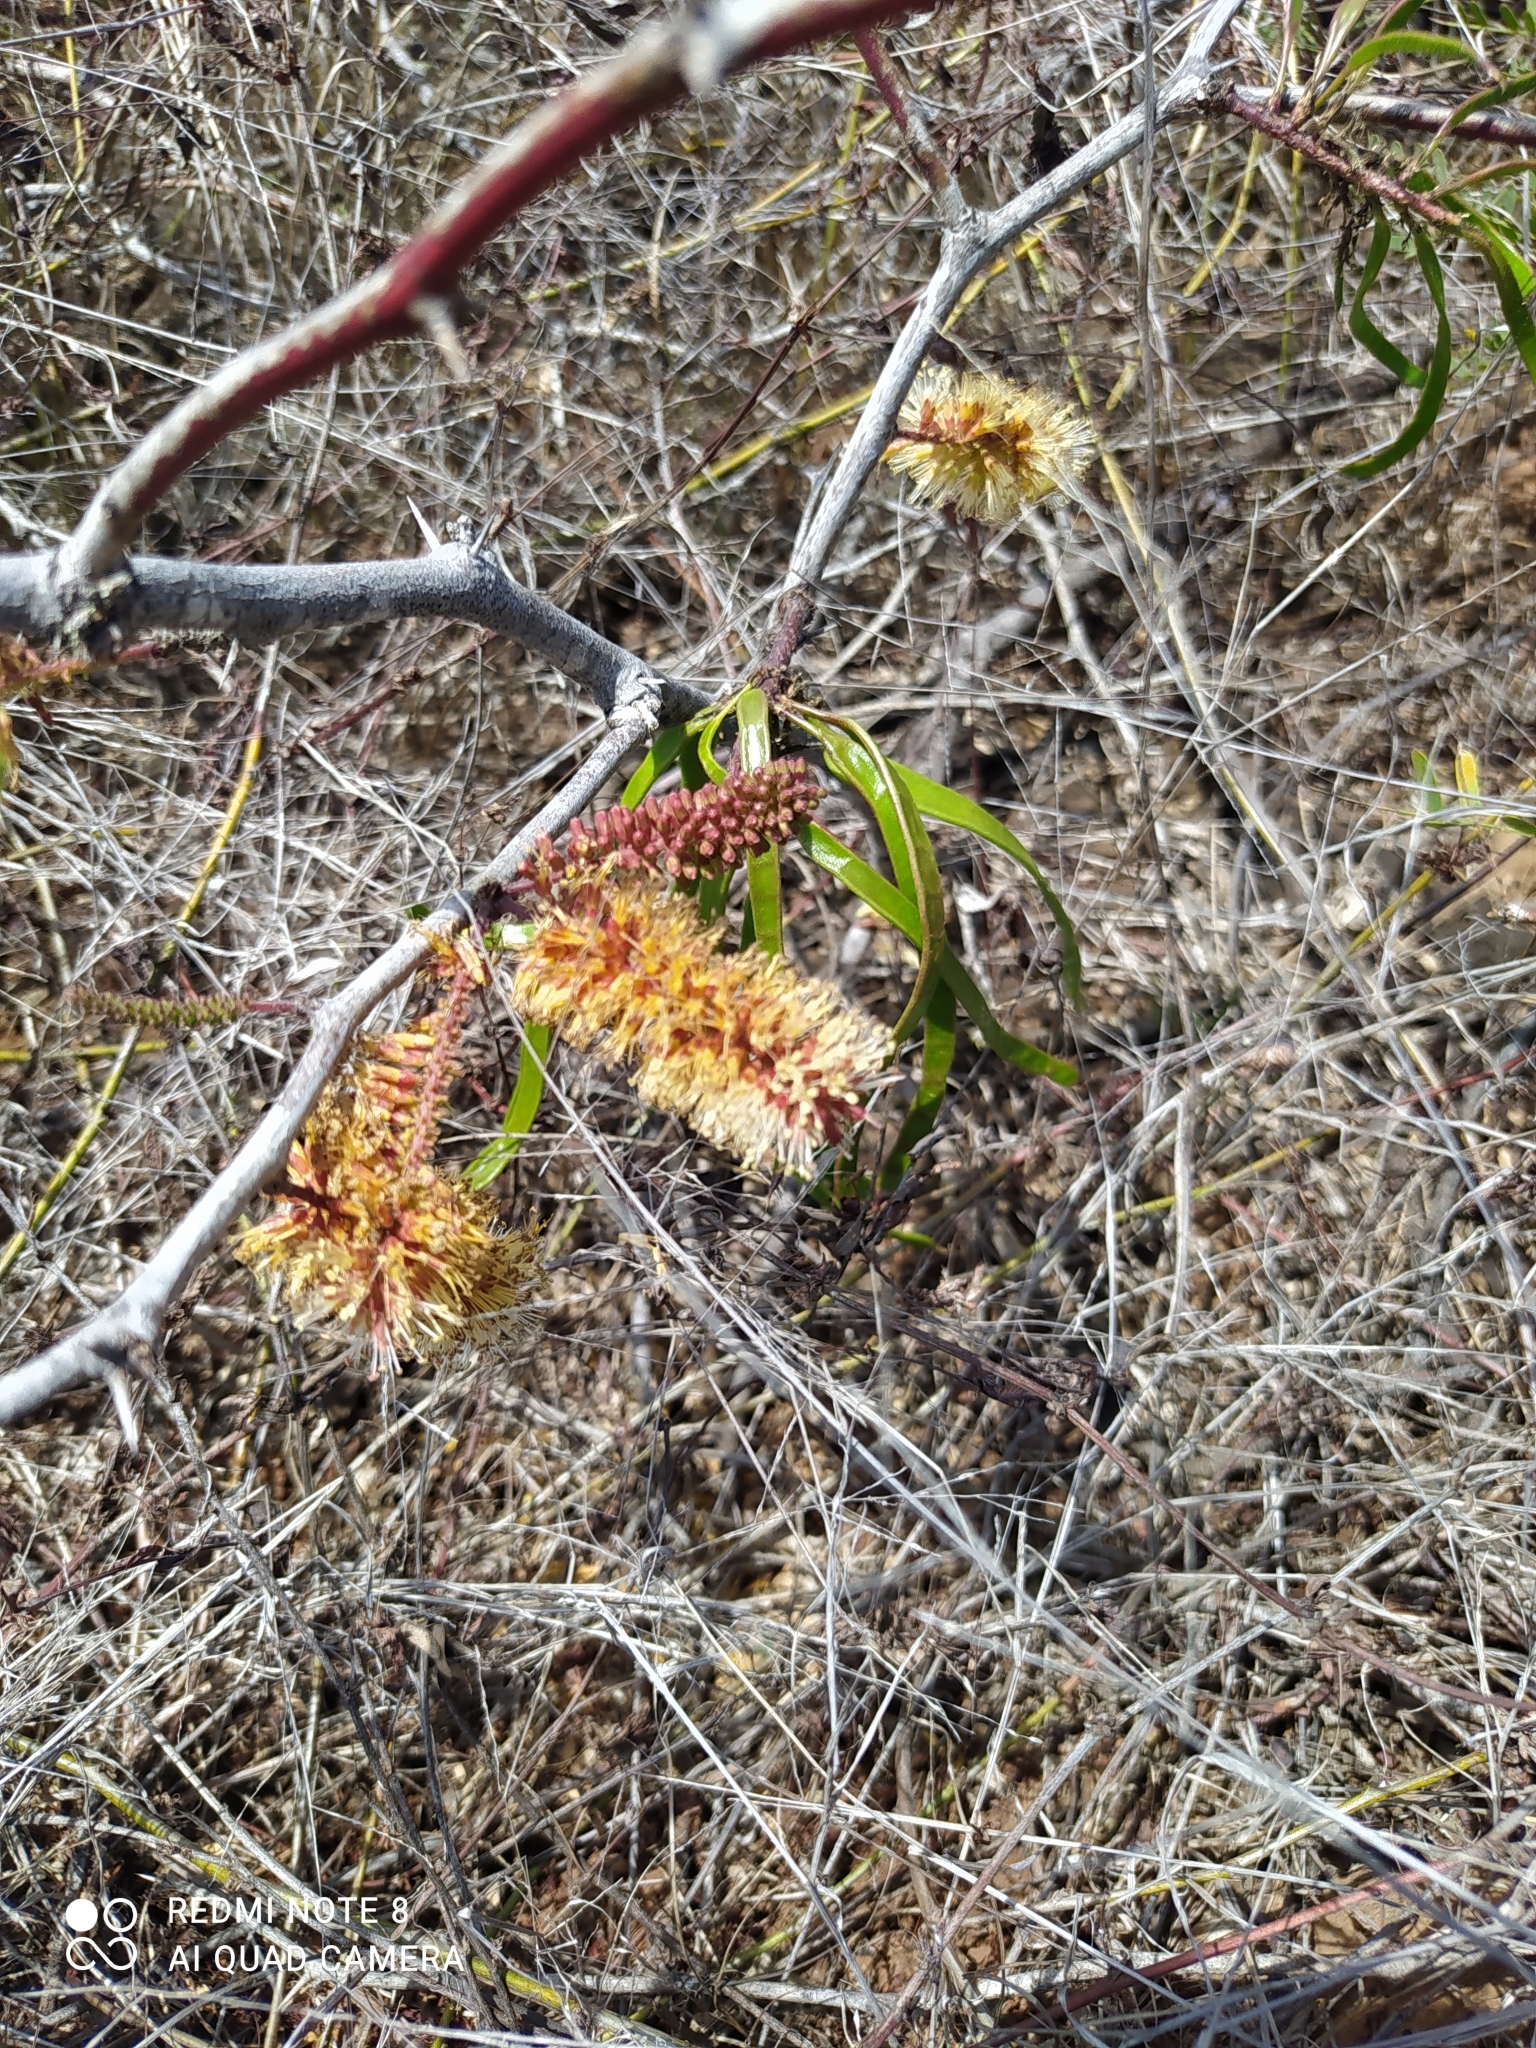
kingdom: Plantae
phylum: Tracheophyta
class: Magnoliopsida
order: Fabales
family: Fabaceae
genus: Prosopis
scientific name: Prosopis pallida
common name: Mesquite
